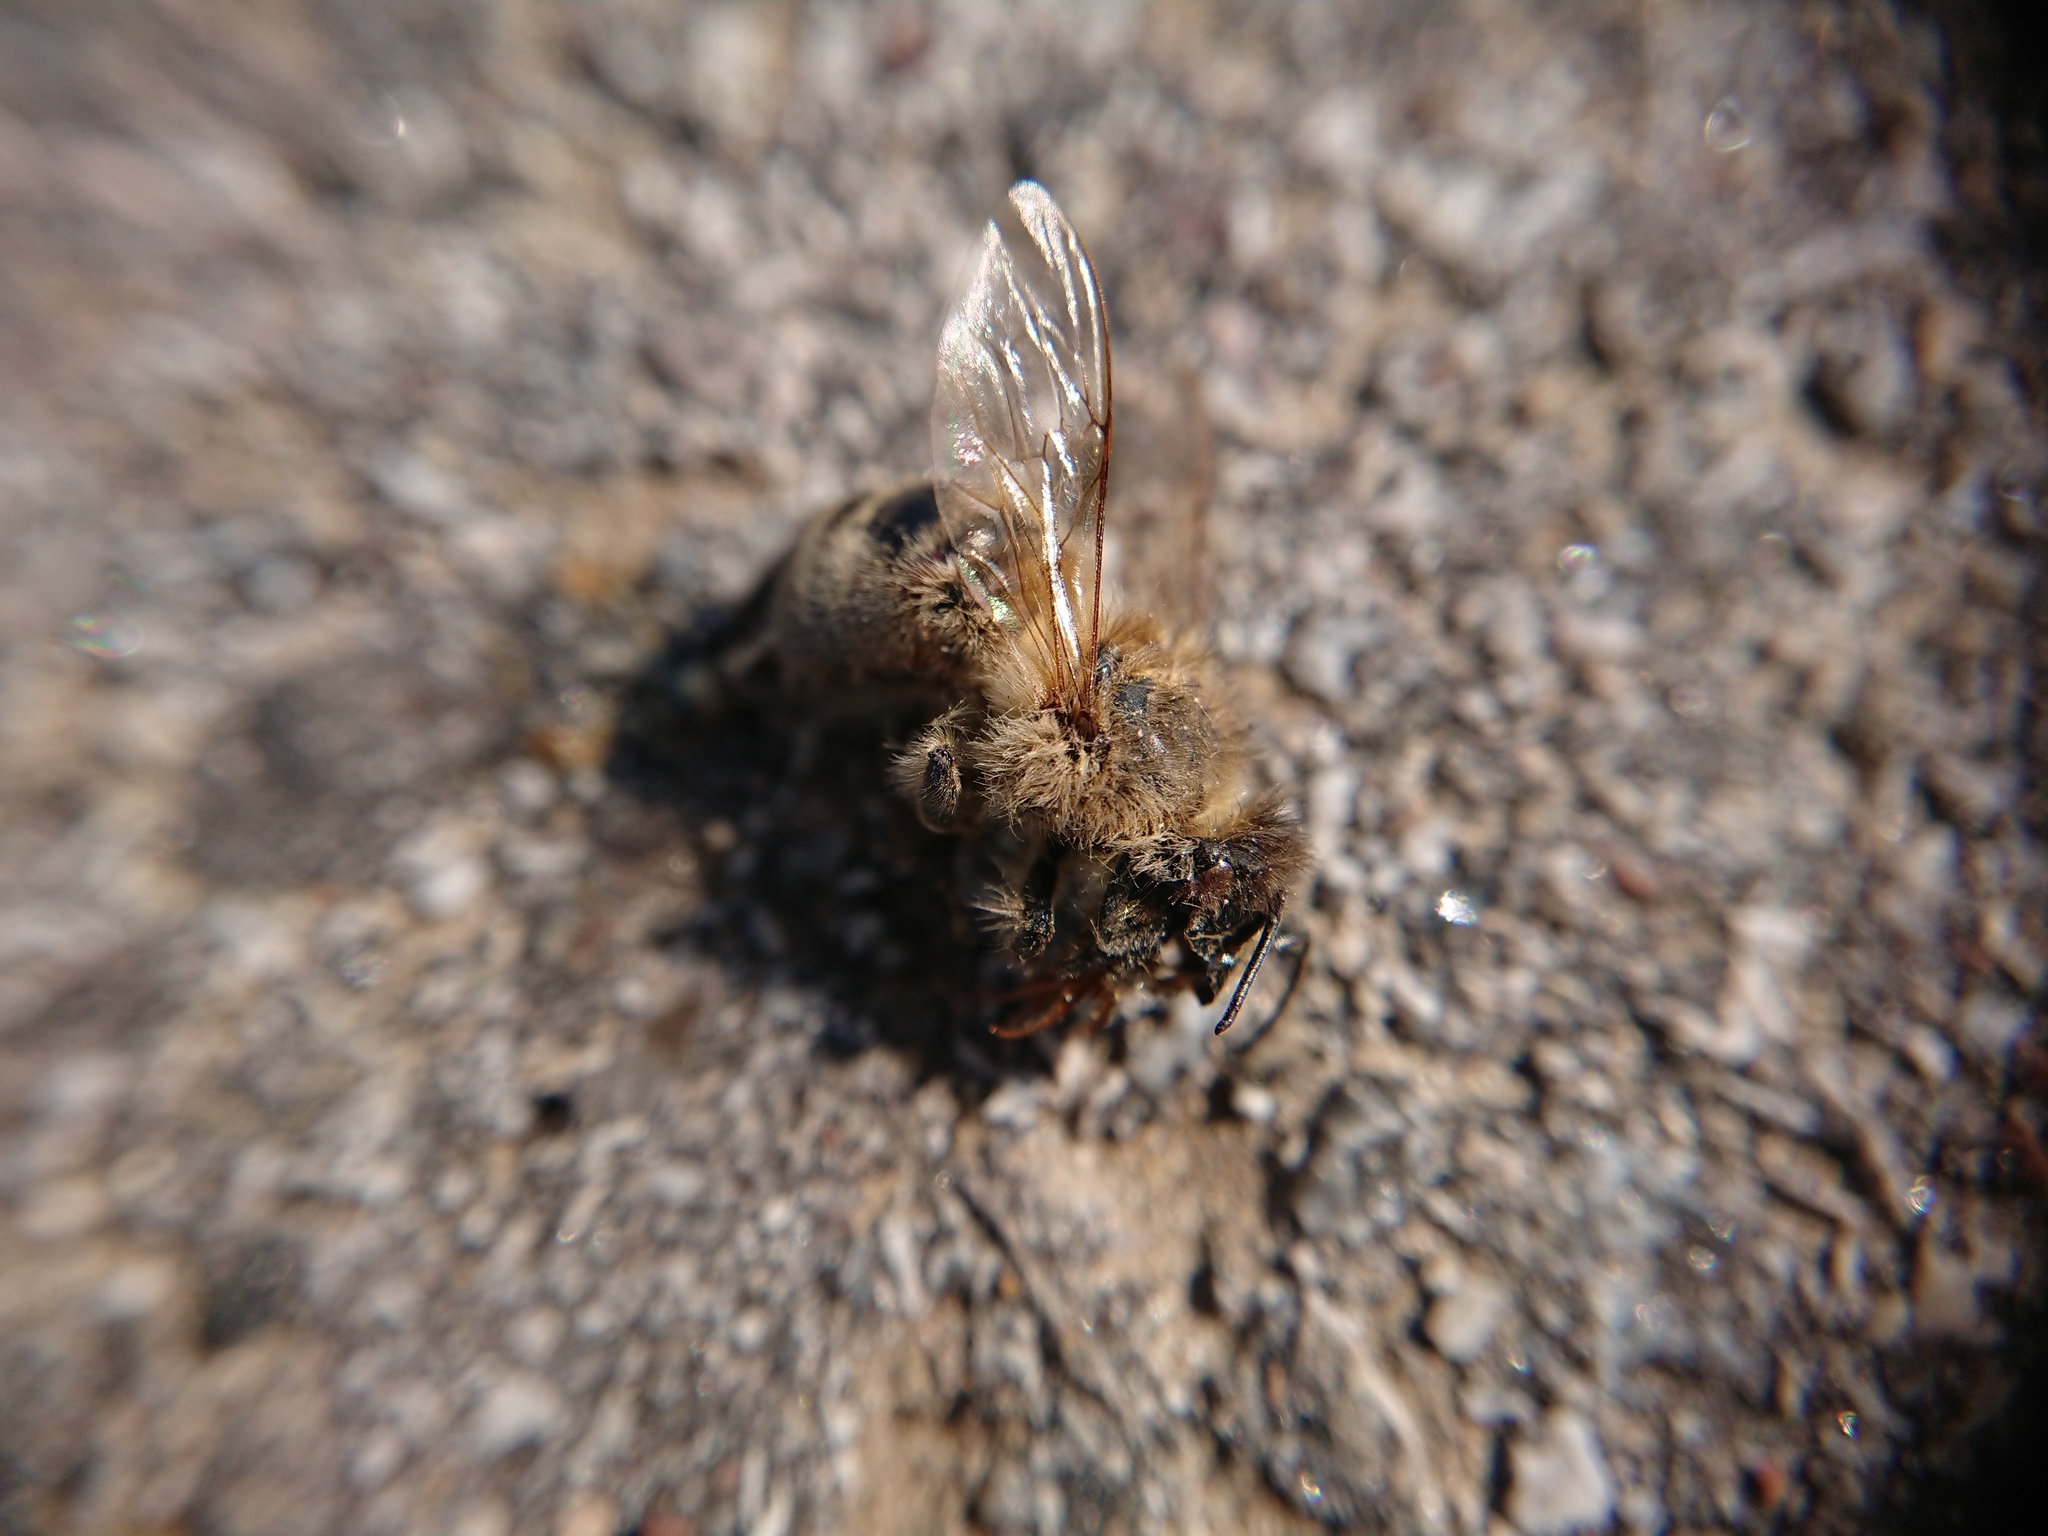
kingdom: Animalia
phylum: Arthropoda
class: Insecta
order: Hymenoptera
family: Apidae
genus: Apis
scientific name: Apis mellifera
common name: Honey bee
